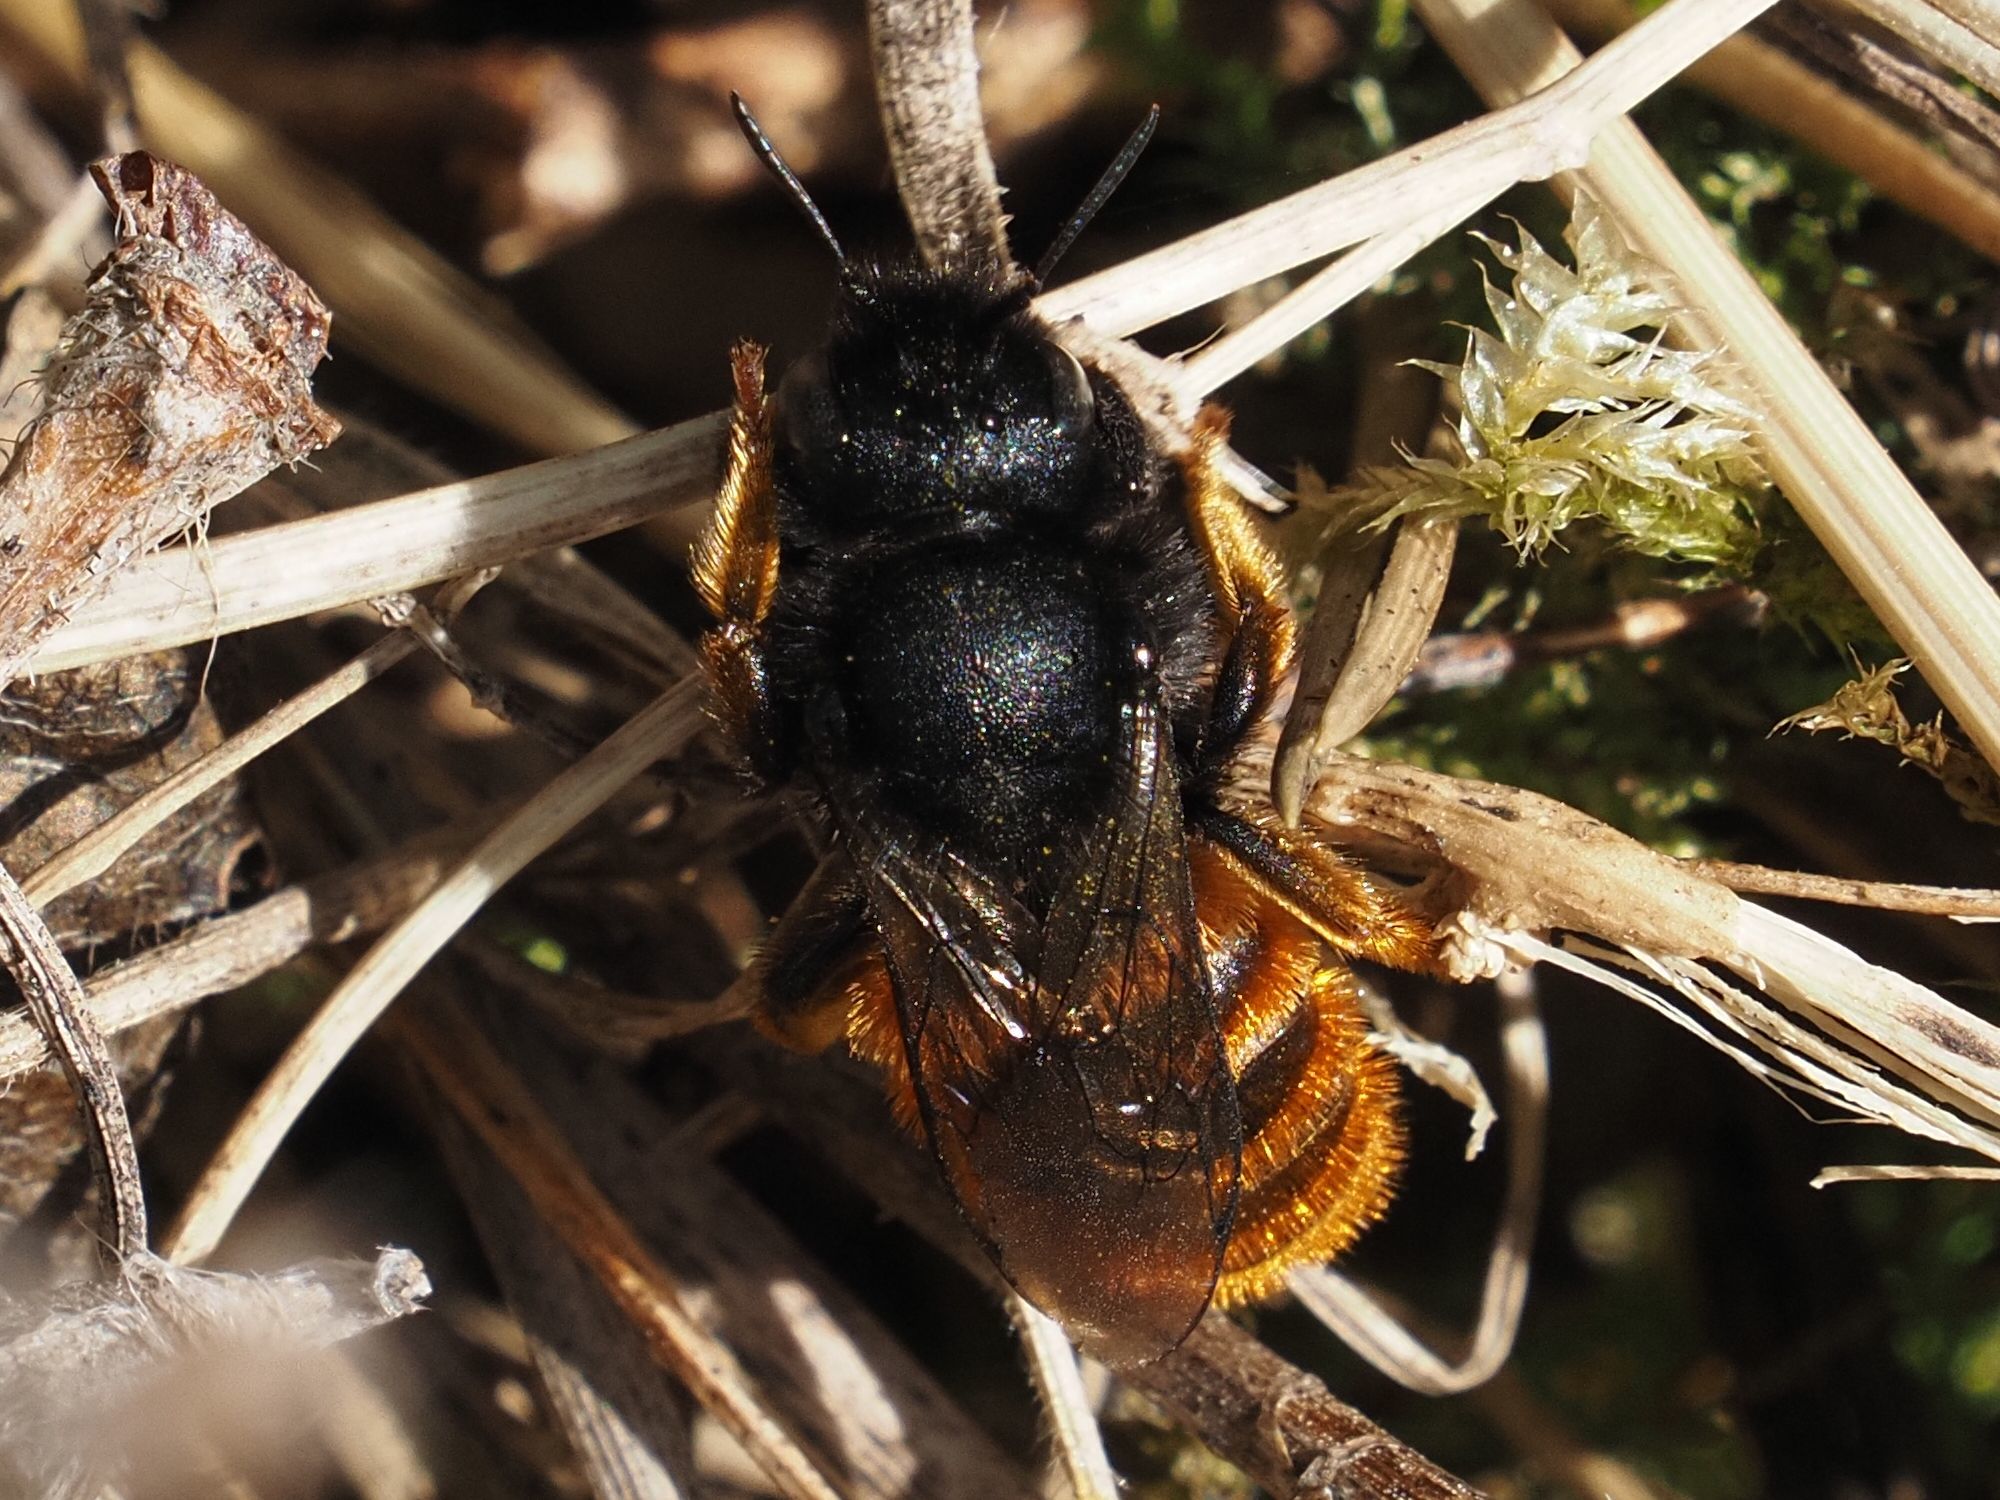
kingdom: Animalia
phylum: Arthropoda
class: Insecta
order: Hymenoptera
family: Megachilidae
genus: Osmia
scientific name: Osmia bicolor
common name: Red-tailed mason bee
